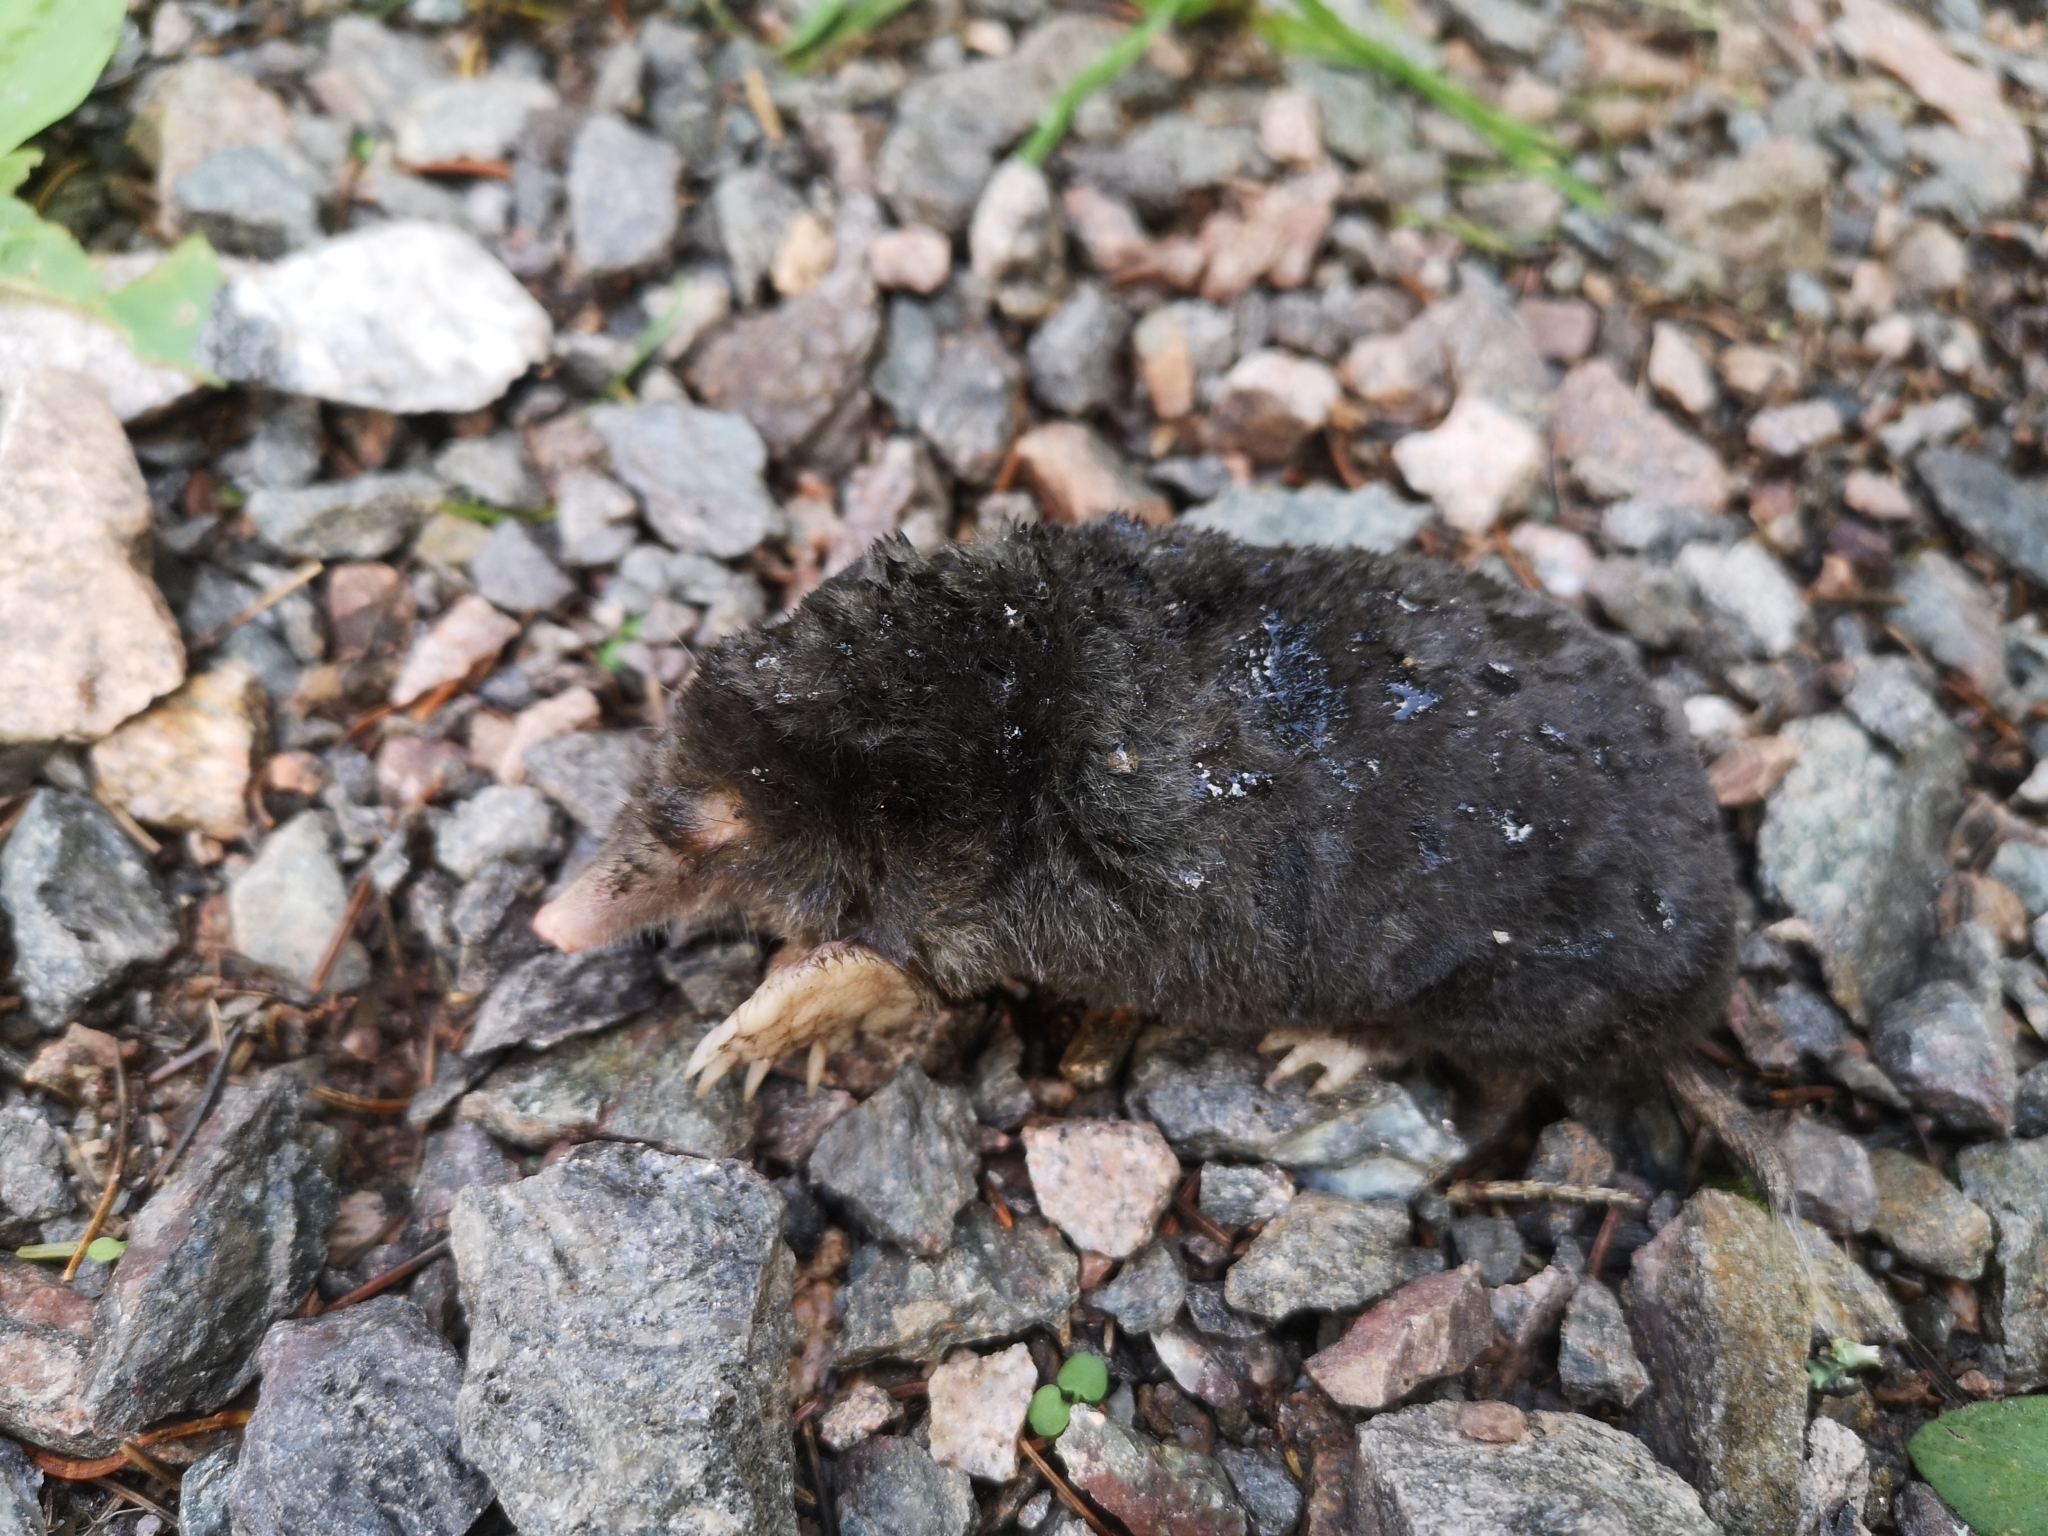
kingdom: Animalia
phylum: Chordata
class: Mammalia
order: Soricomorpha
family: Talpidae
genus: Talpa
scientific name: Talpa europaea
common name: European mole
